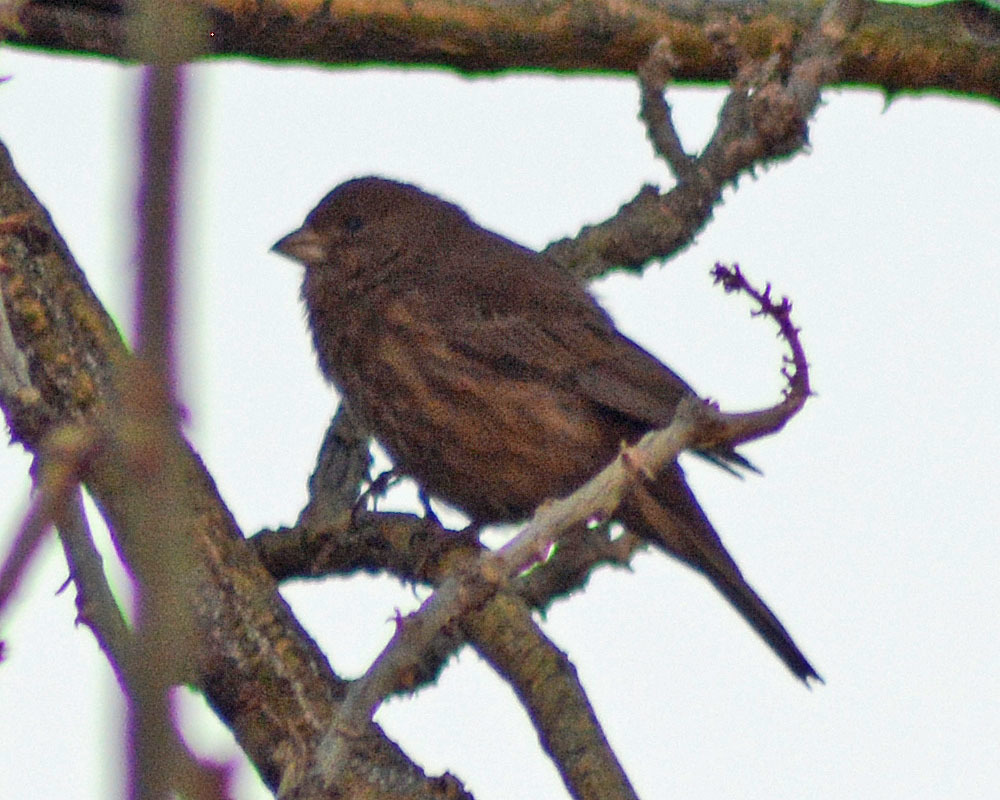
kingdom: Animalia
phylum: Chordata
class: Aves
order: Passeriformes
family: Fringillidae
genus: Haemorhous
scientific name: Haemorhous mexicanus
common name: House finch
